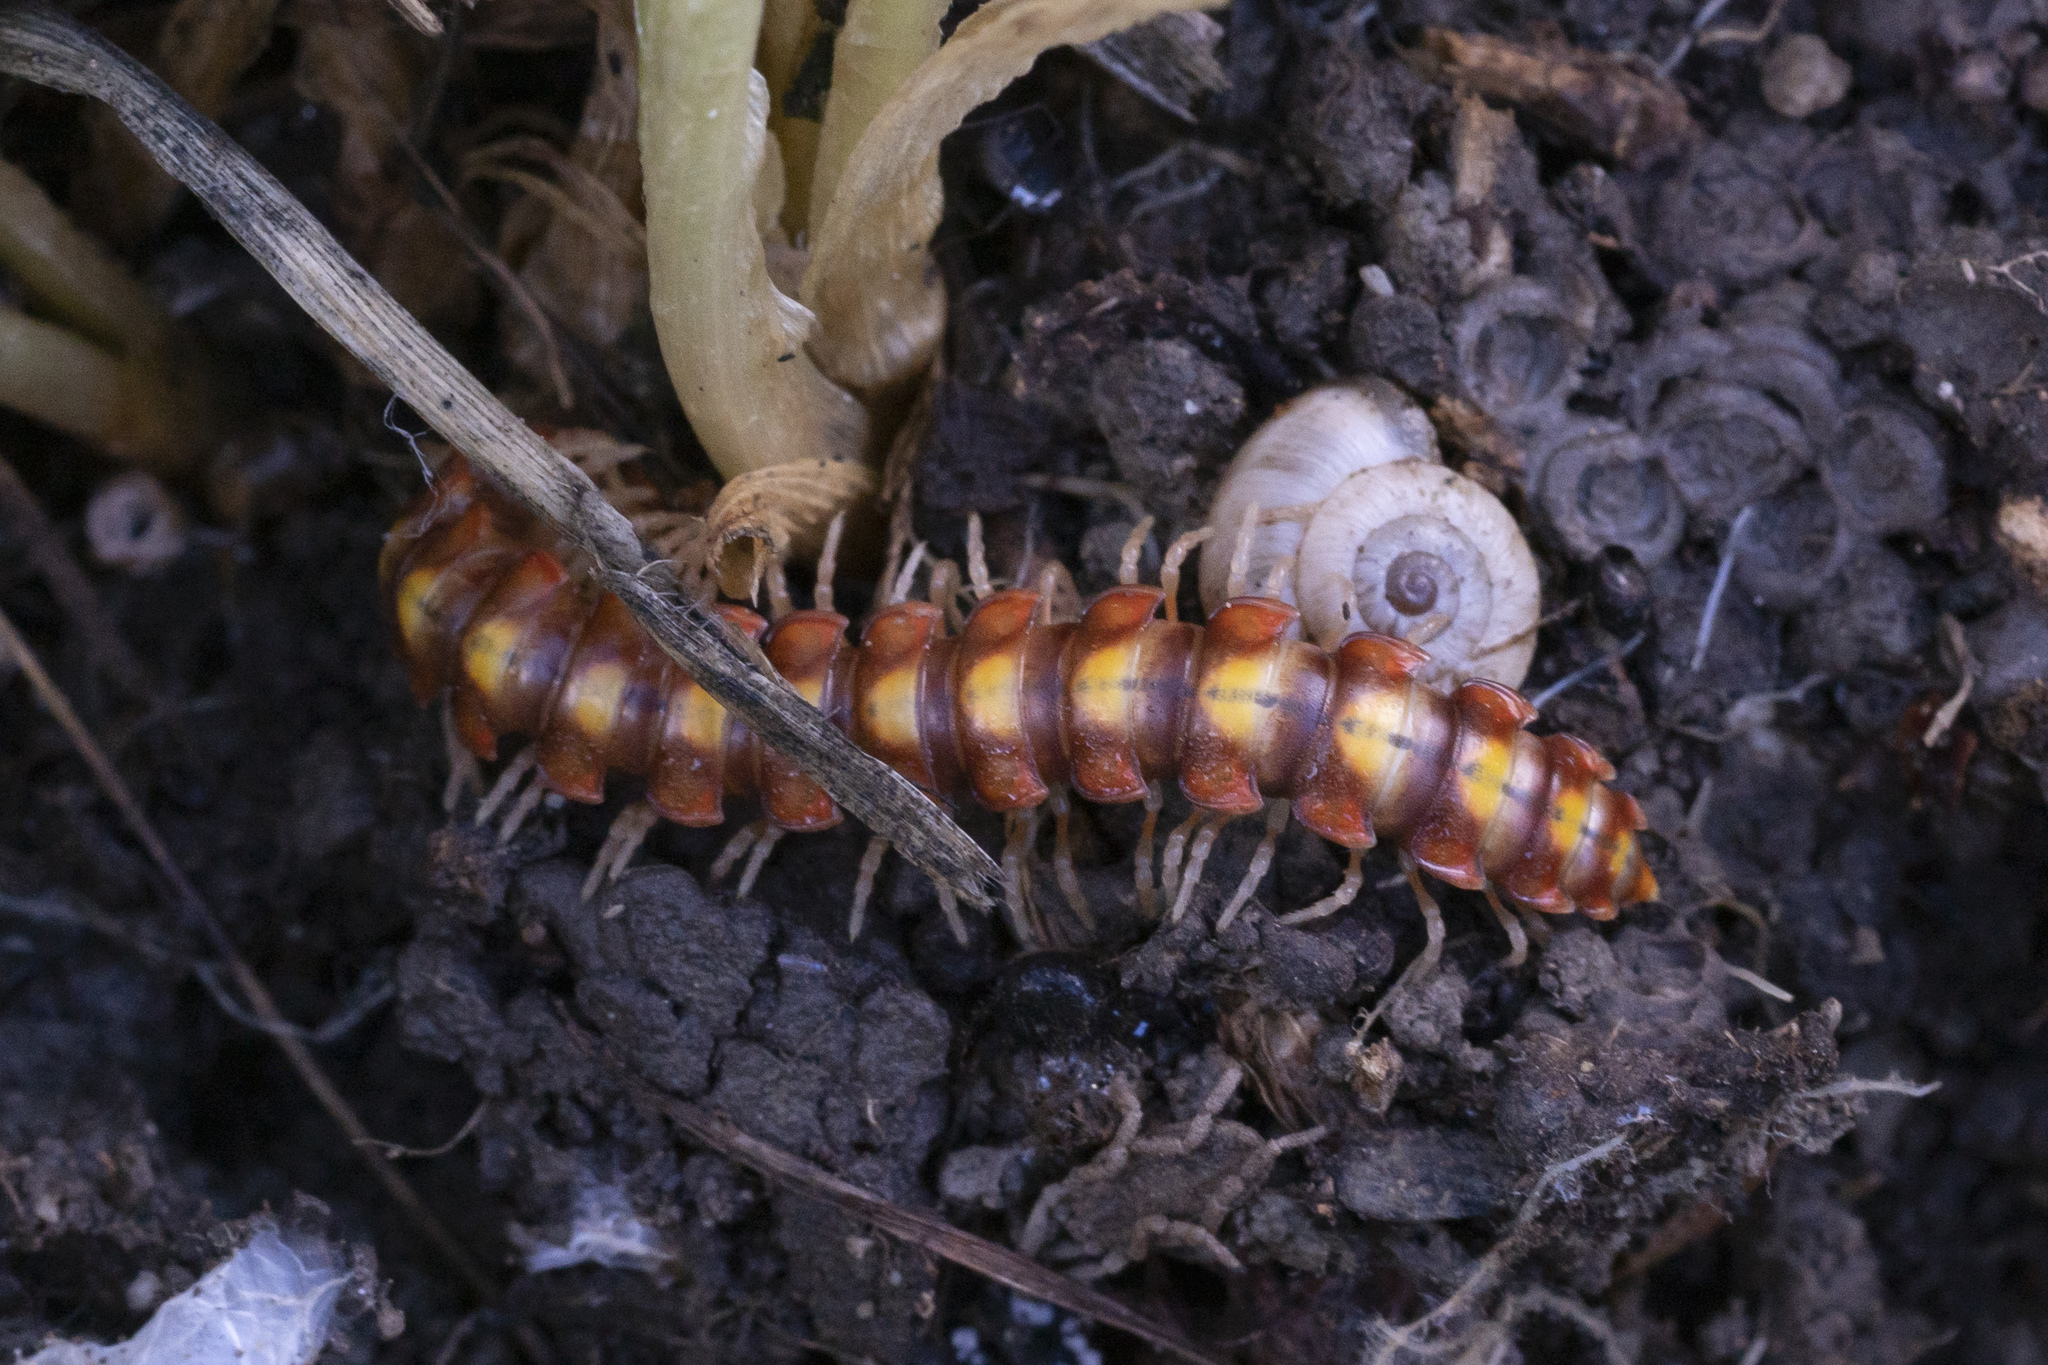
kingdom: Animalia
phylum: Arthropoda
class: Diplopoda
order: Polydesmida
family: Xystodesmidae
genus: Melaphe
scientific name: Melaphe vestita
